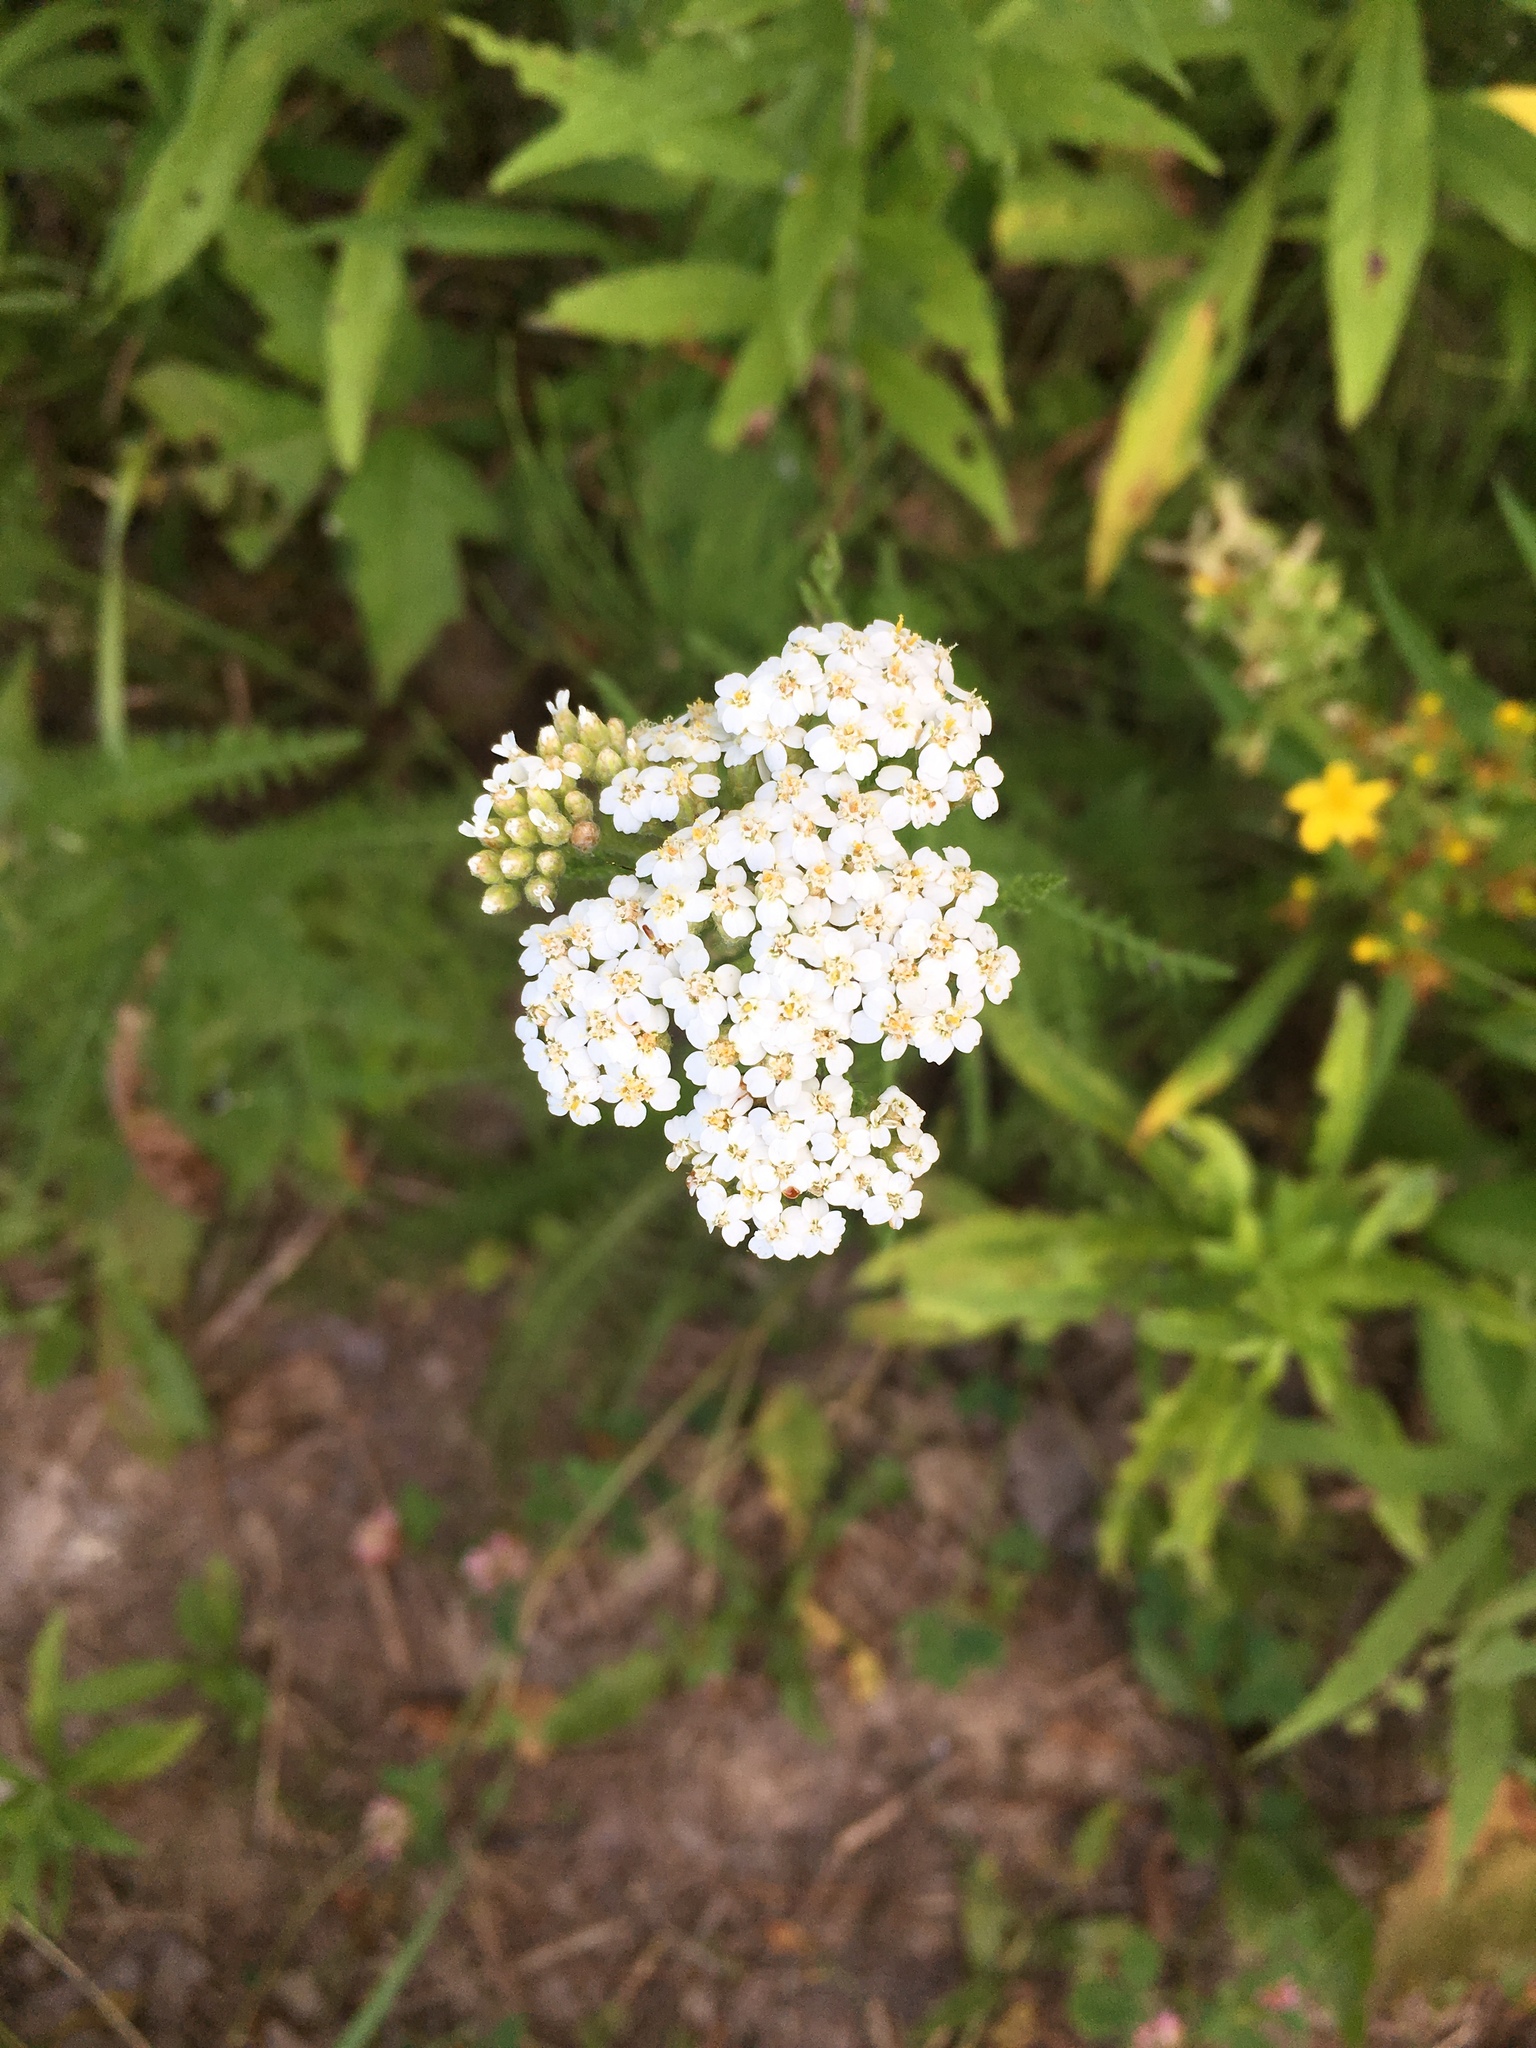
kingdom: Plantae
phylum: Tracheophyta
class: Magnoliopsida
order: Asterales
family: Asteraceae
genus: Achillea
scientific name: Achillea millefolium
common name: Yarrow
